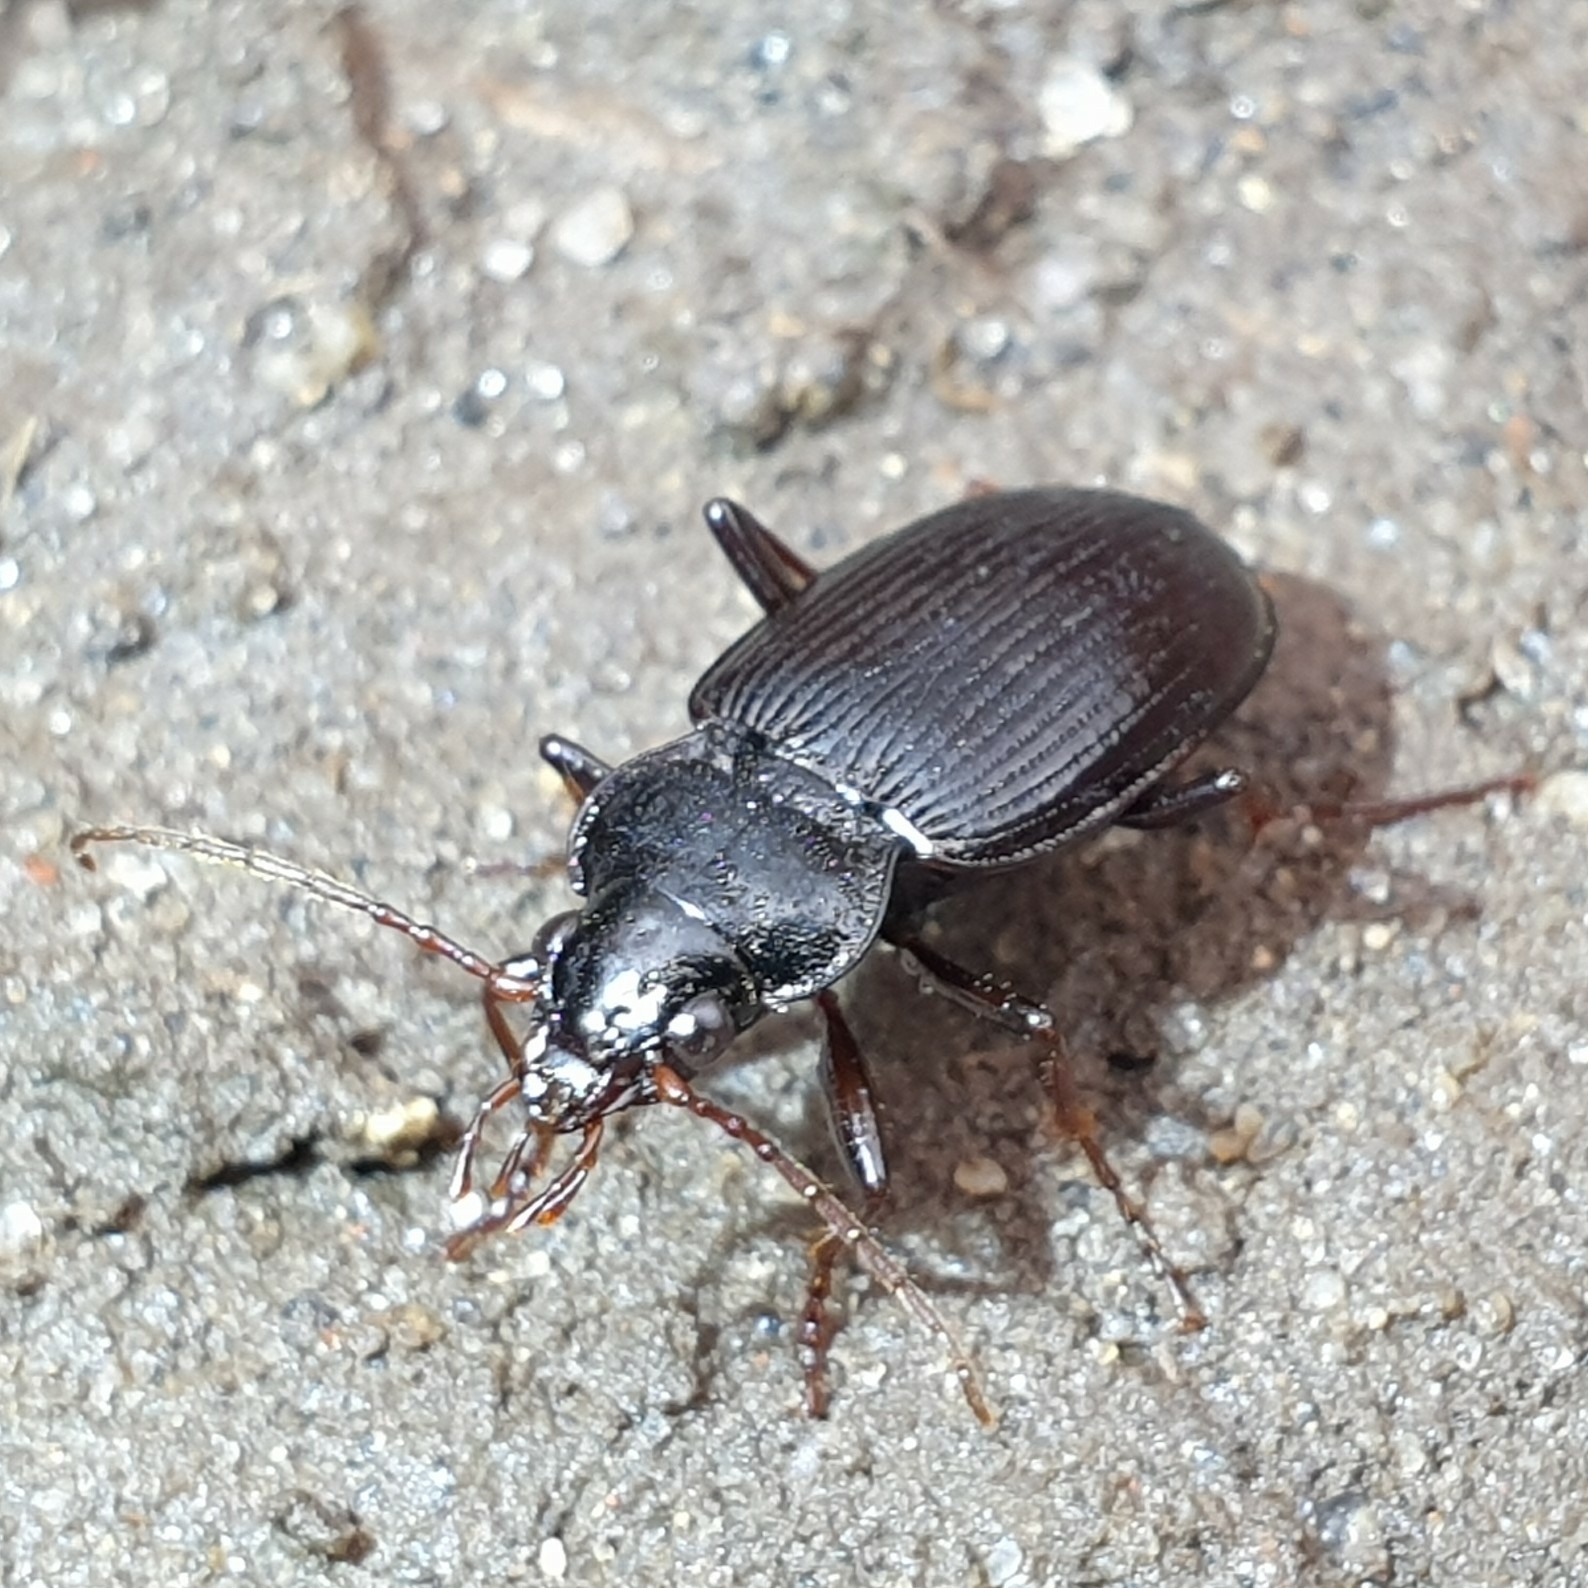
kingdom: Animalia
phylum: Arthropoda
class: Insecta
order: Coleoptera
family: Carabidae
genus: Nebria
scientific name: Nebria brevicollis
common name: Short-necked gazelle beetle
